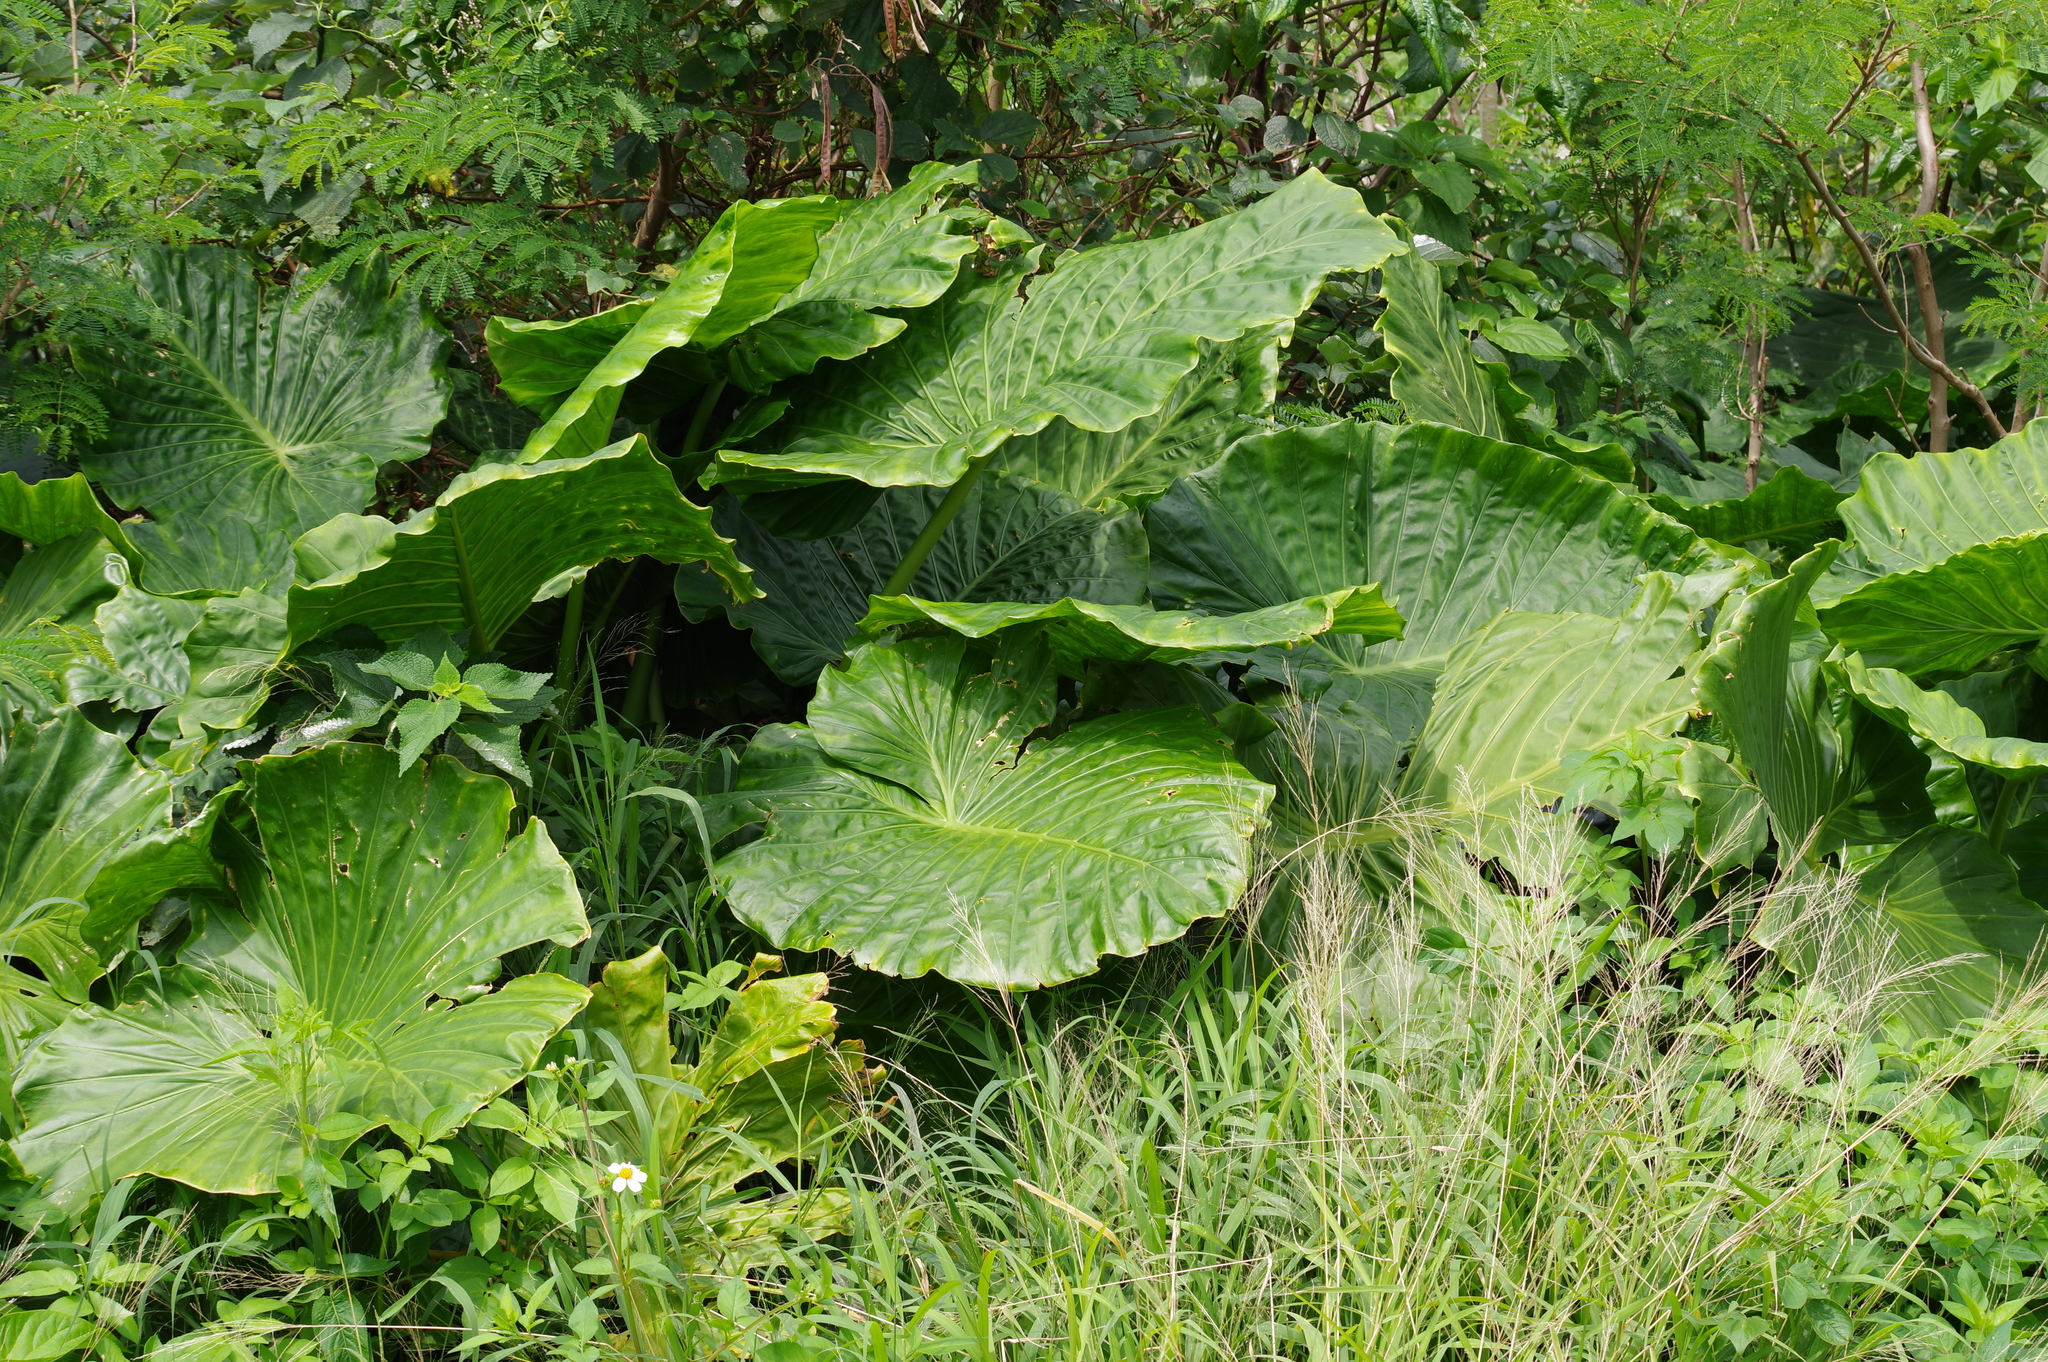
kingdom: Plantae
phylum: Tracheophyta
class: Liliopsida
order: Alismatales
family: Araceae
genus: Alocasia
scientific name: Alocasia odora
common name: Asian taro
